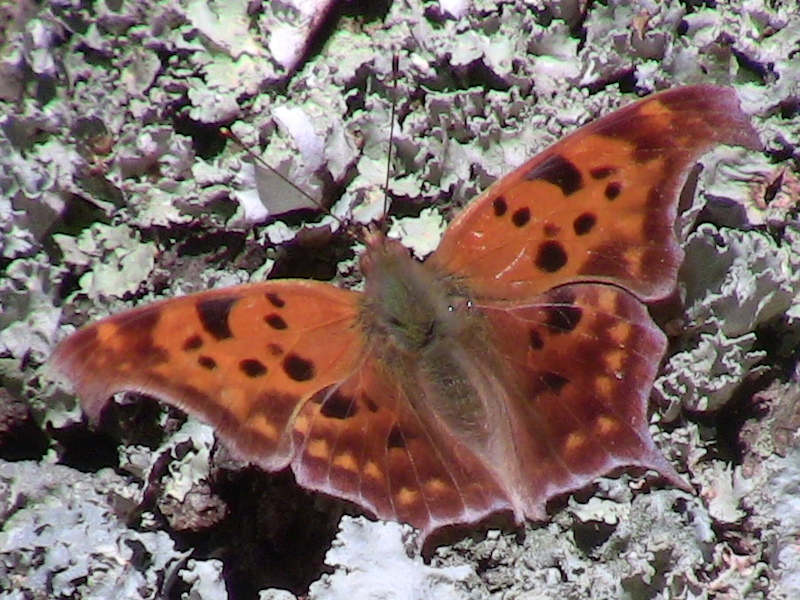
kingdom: Animalia
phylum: Arthropoda
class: Insecta
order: Lepidoptera
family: Nymphalidae
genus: Polygonia
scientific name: Polygonia interrogationis
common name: Question mark
